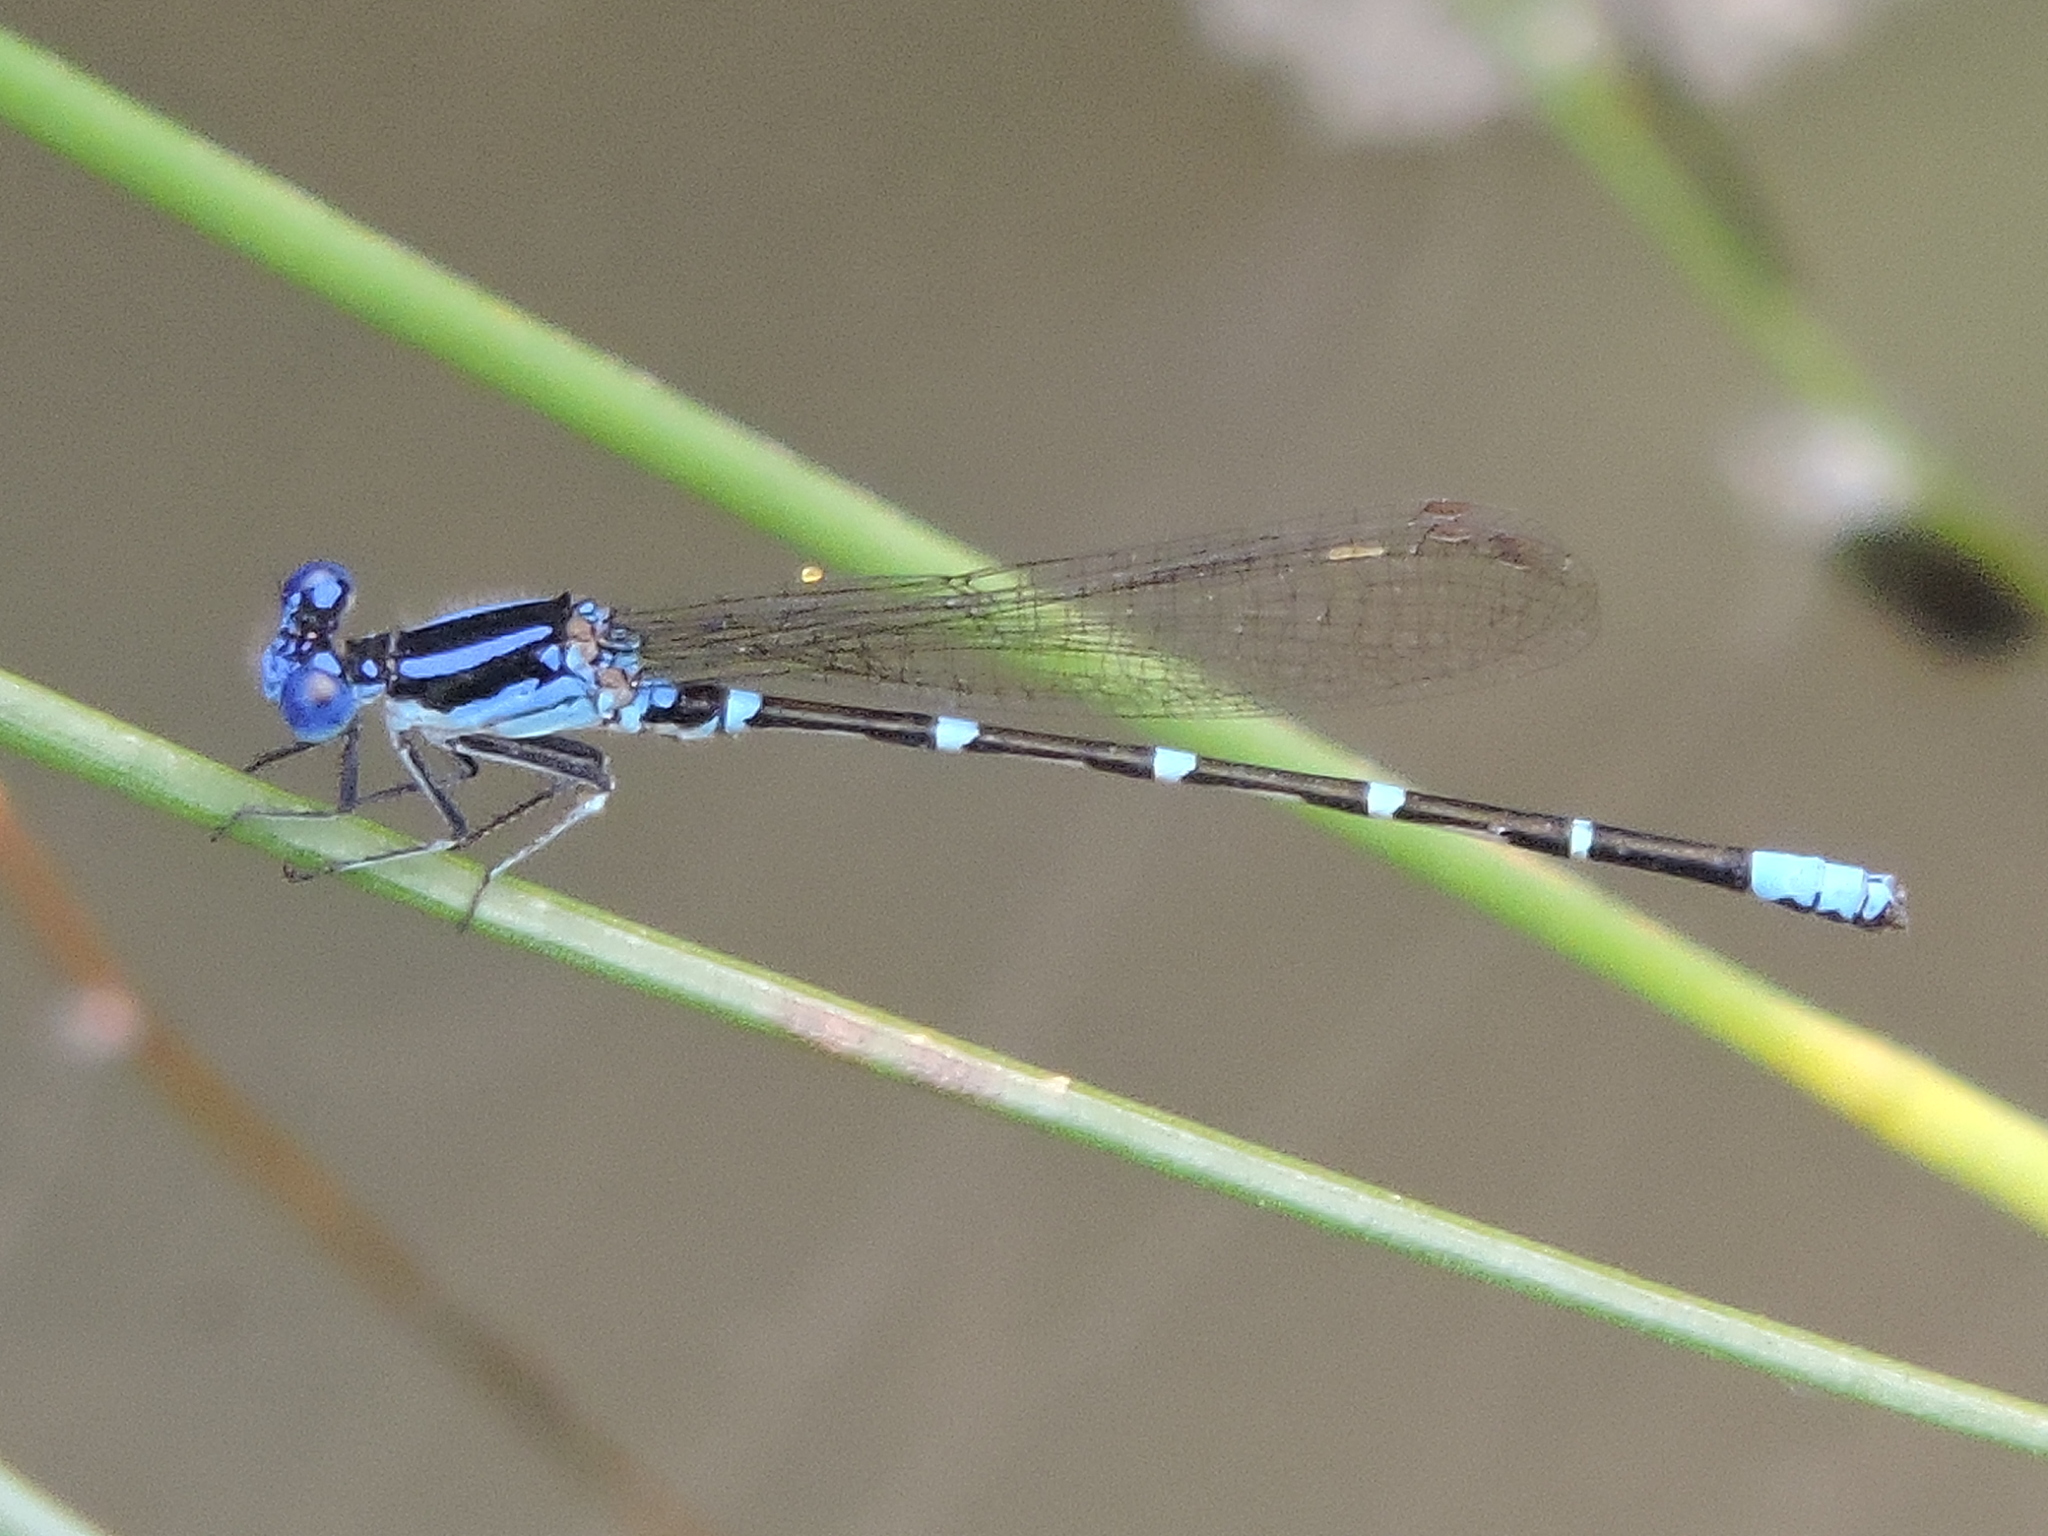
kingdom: Animalia
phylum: Arthropoda
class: Insecta
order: Odonata
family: Coenagrionidae
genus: Argia
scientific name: Argia sedula
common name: Blue-ringed dancer
